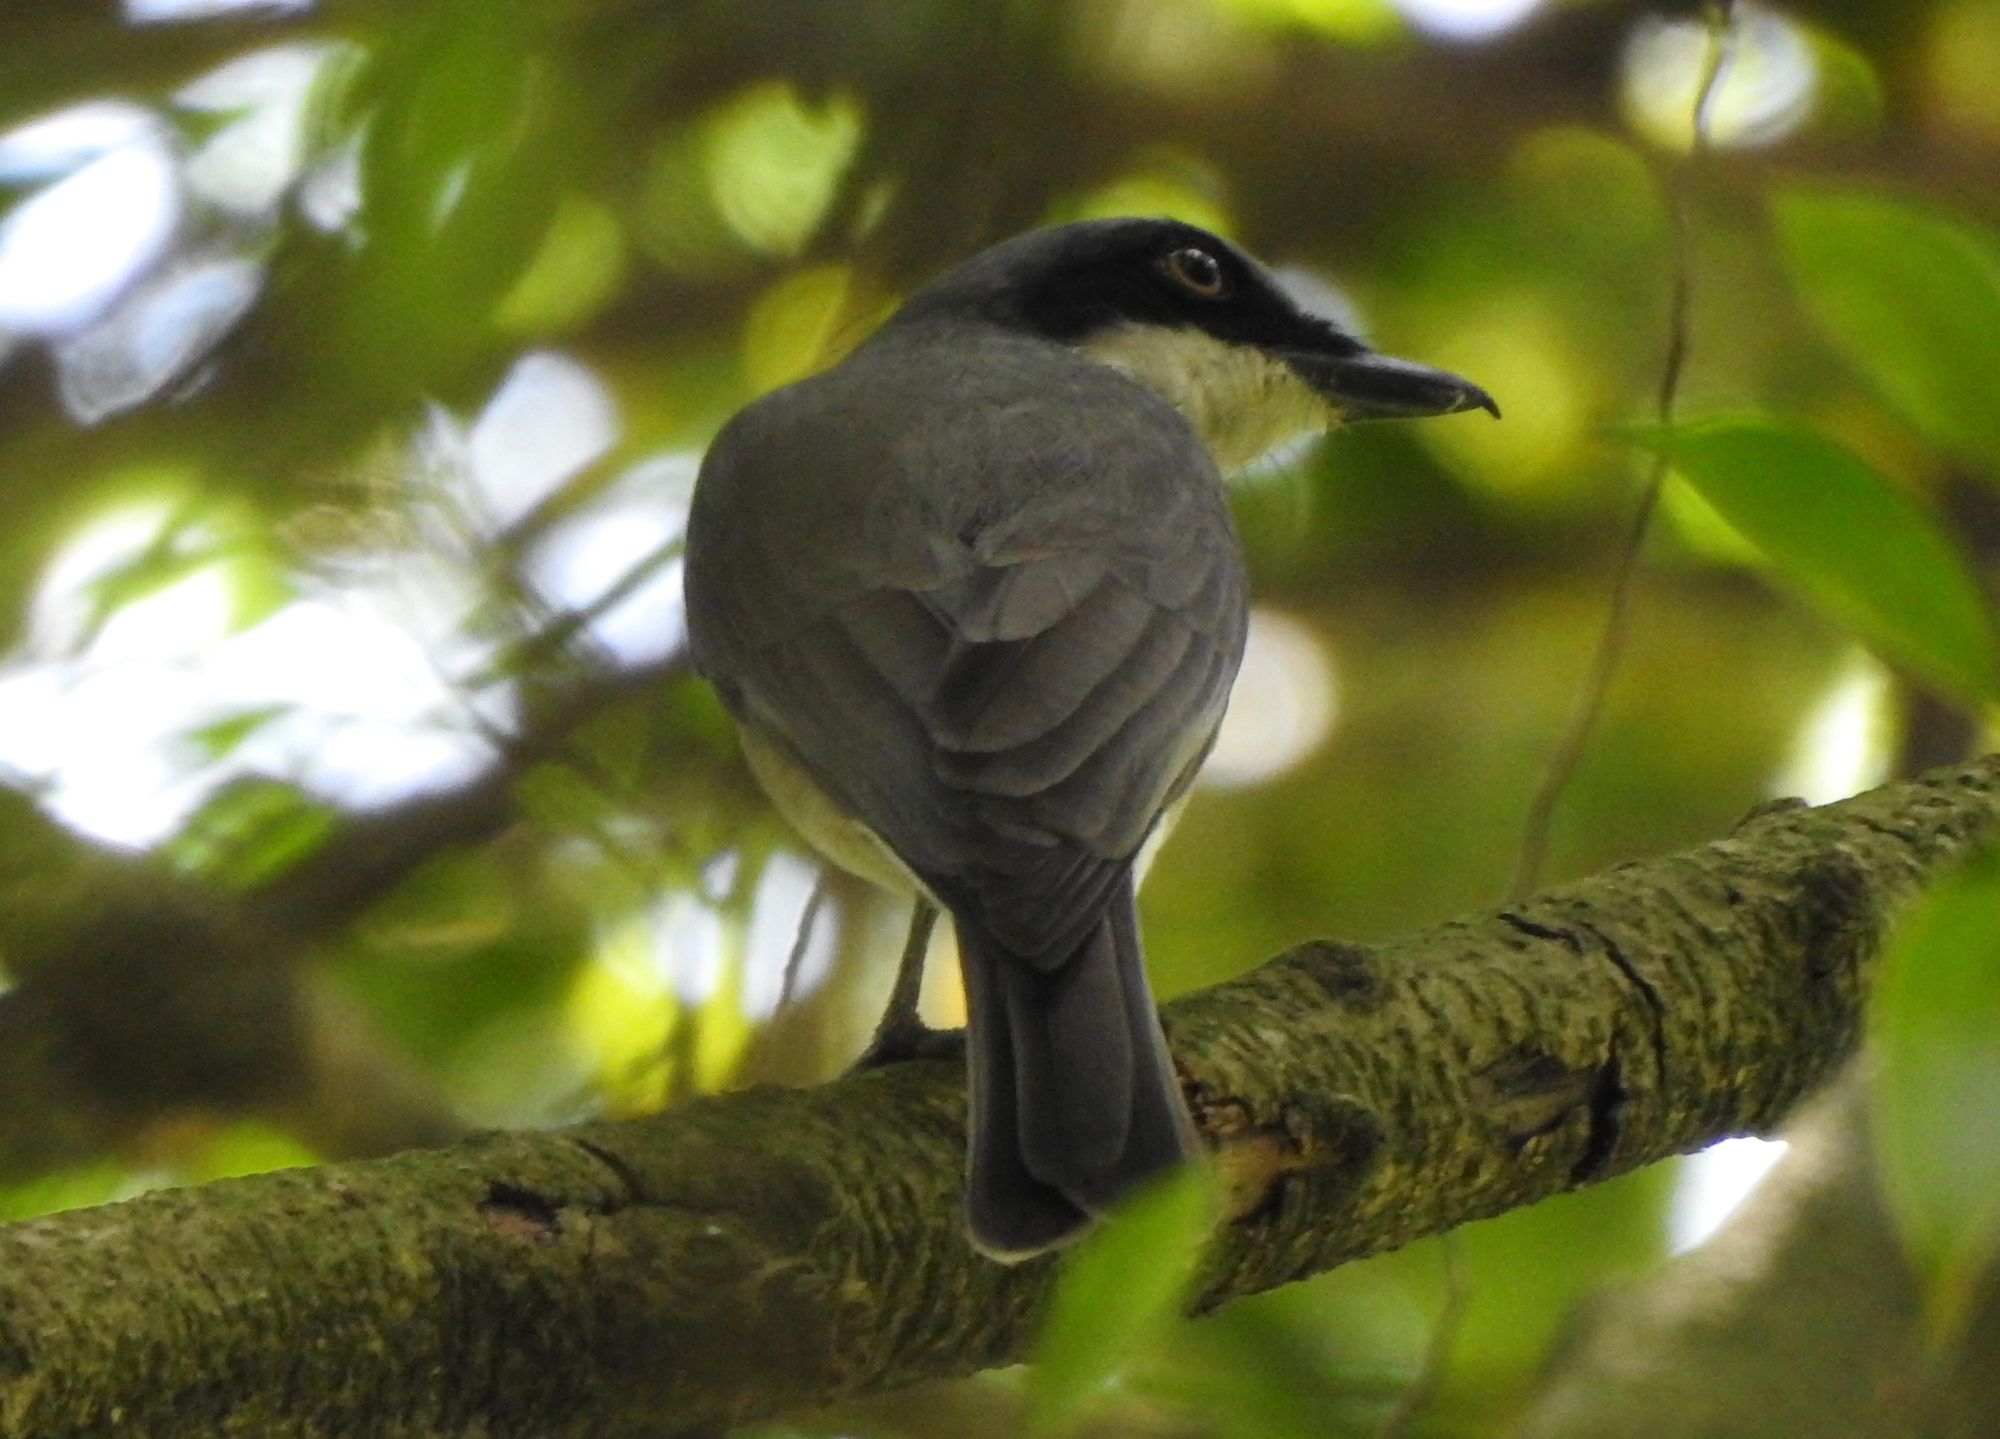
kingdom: Animalia
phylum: Chordata
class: Aves
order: Passeriformes
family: Tephrodornithidae
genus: Tephrodornis
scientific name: Tephrodornis virgatus
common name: Large woodshrike
